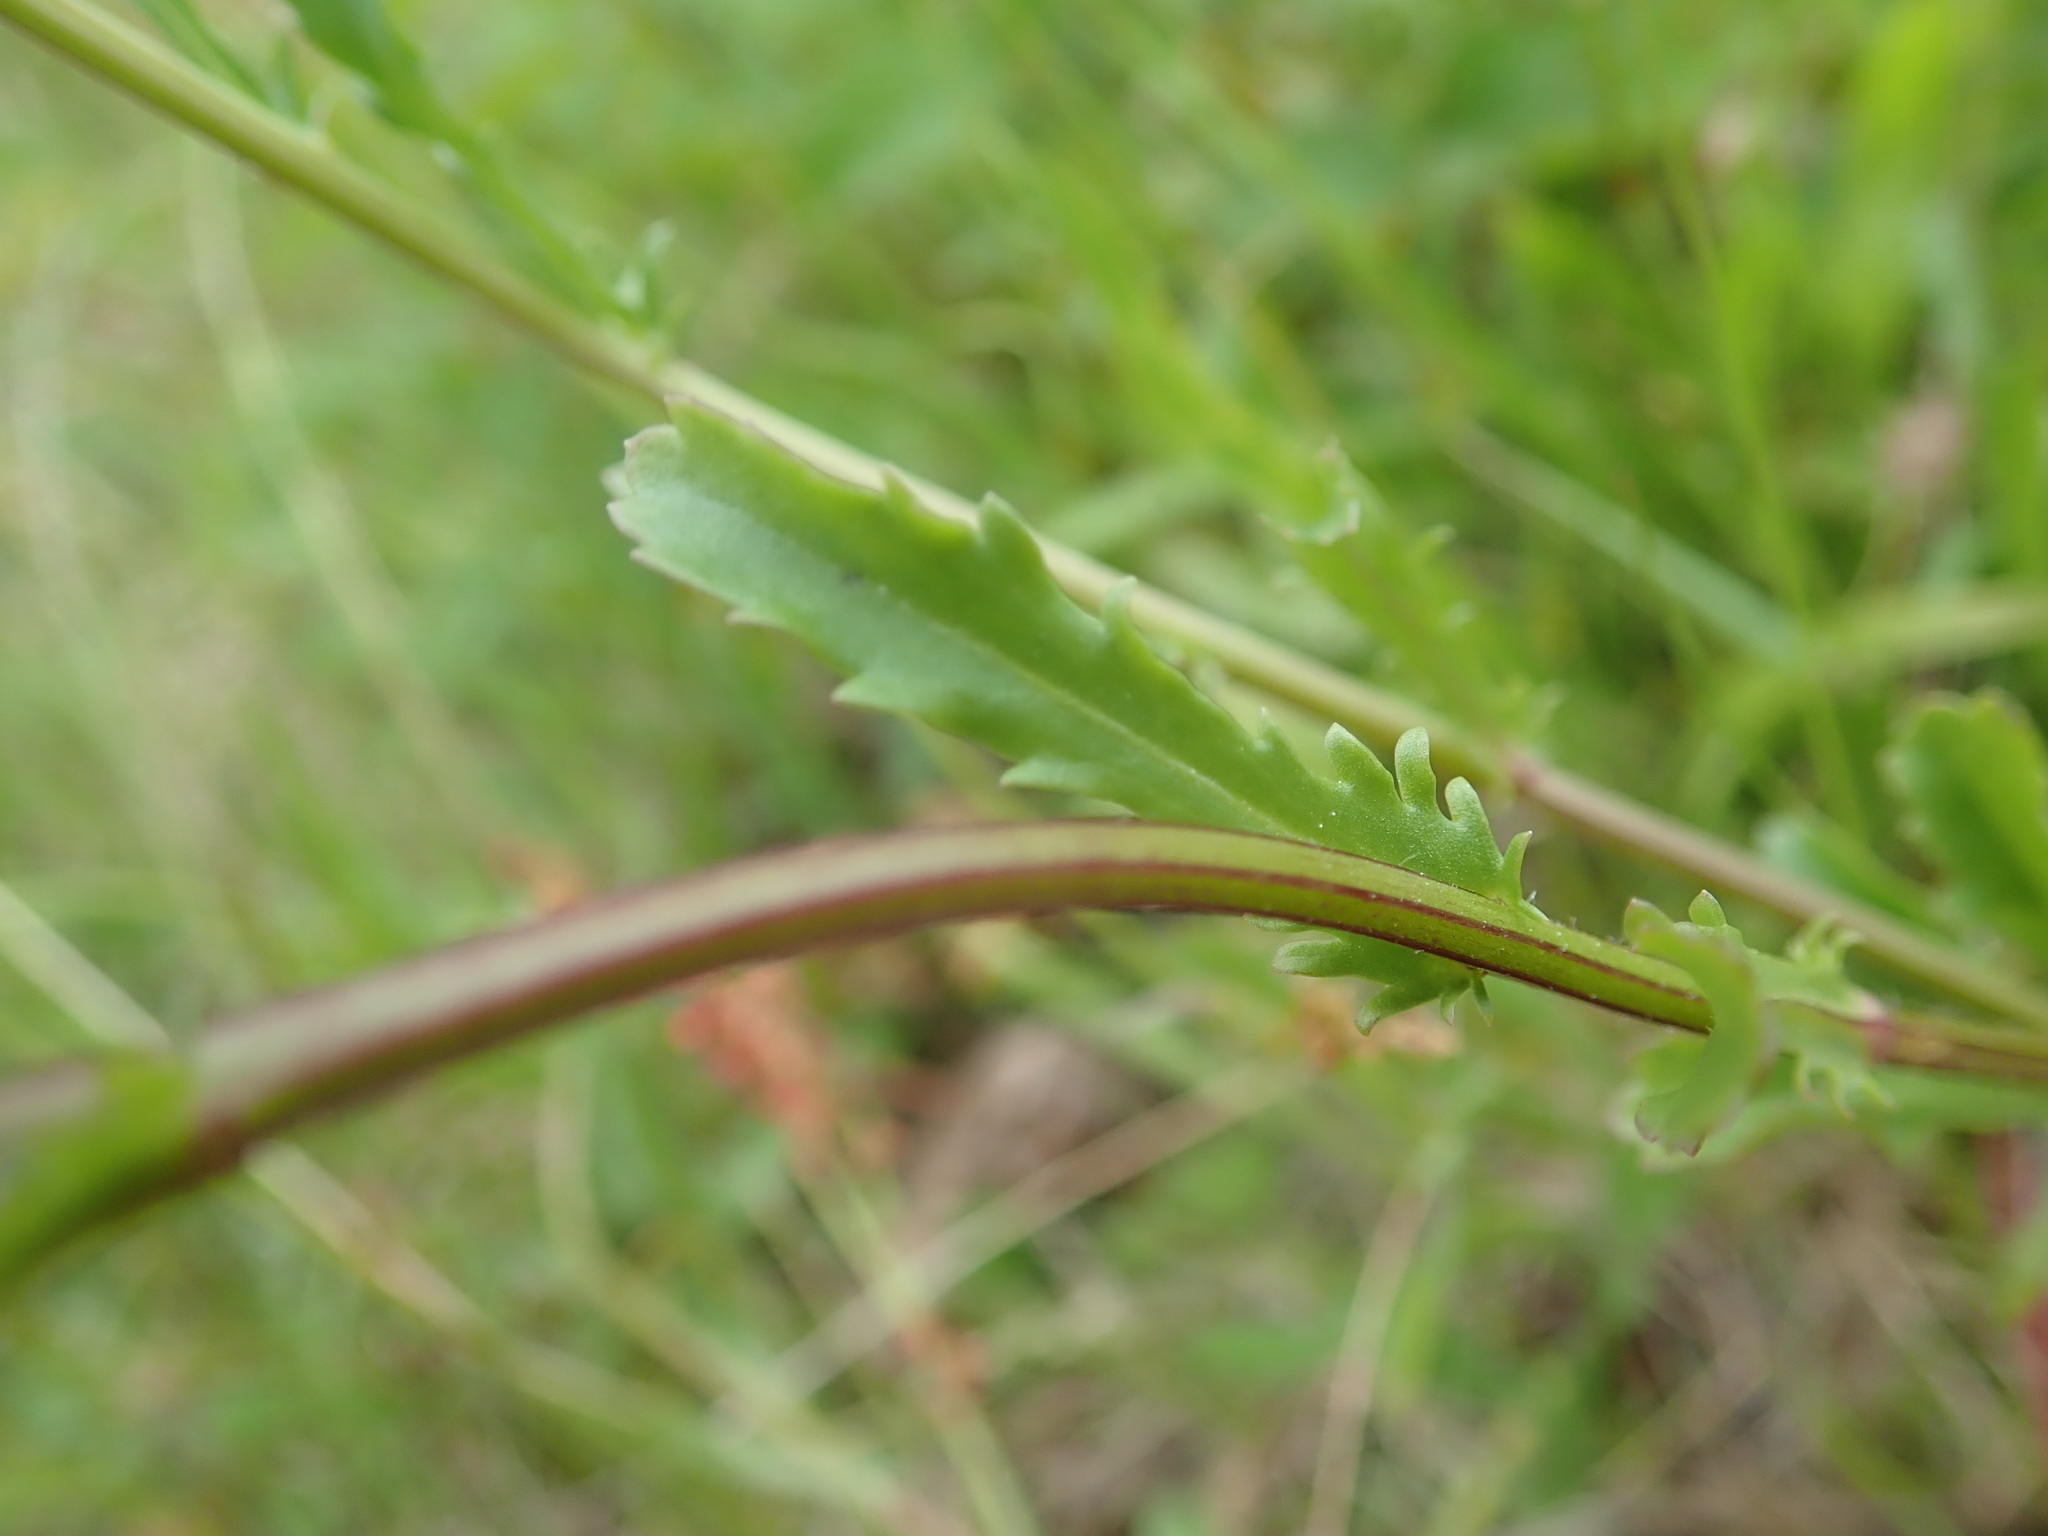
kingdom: Plantae
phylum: Tracheophyta
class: Magnoliopsida
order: Asterales
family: Asteraceae
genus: Leucanthemum
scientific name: Leucanthemum vulgare
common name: Oxeye daisy
